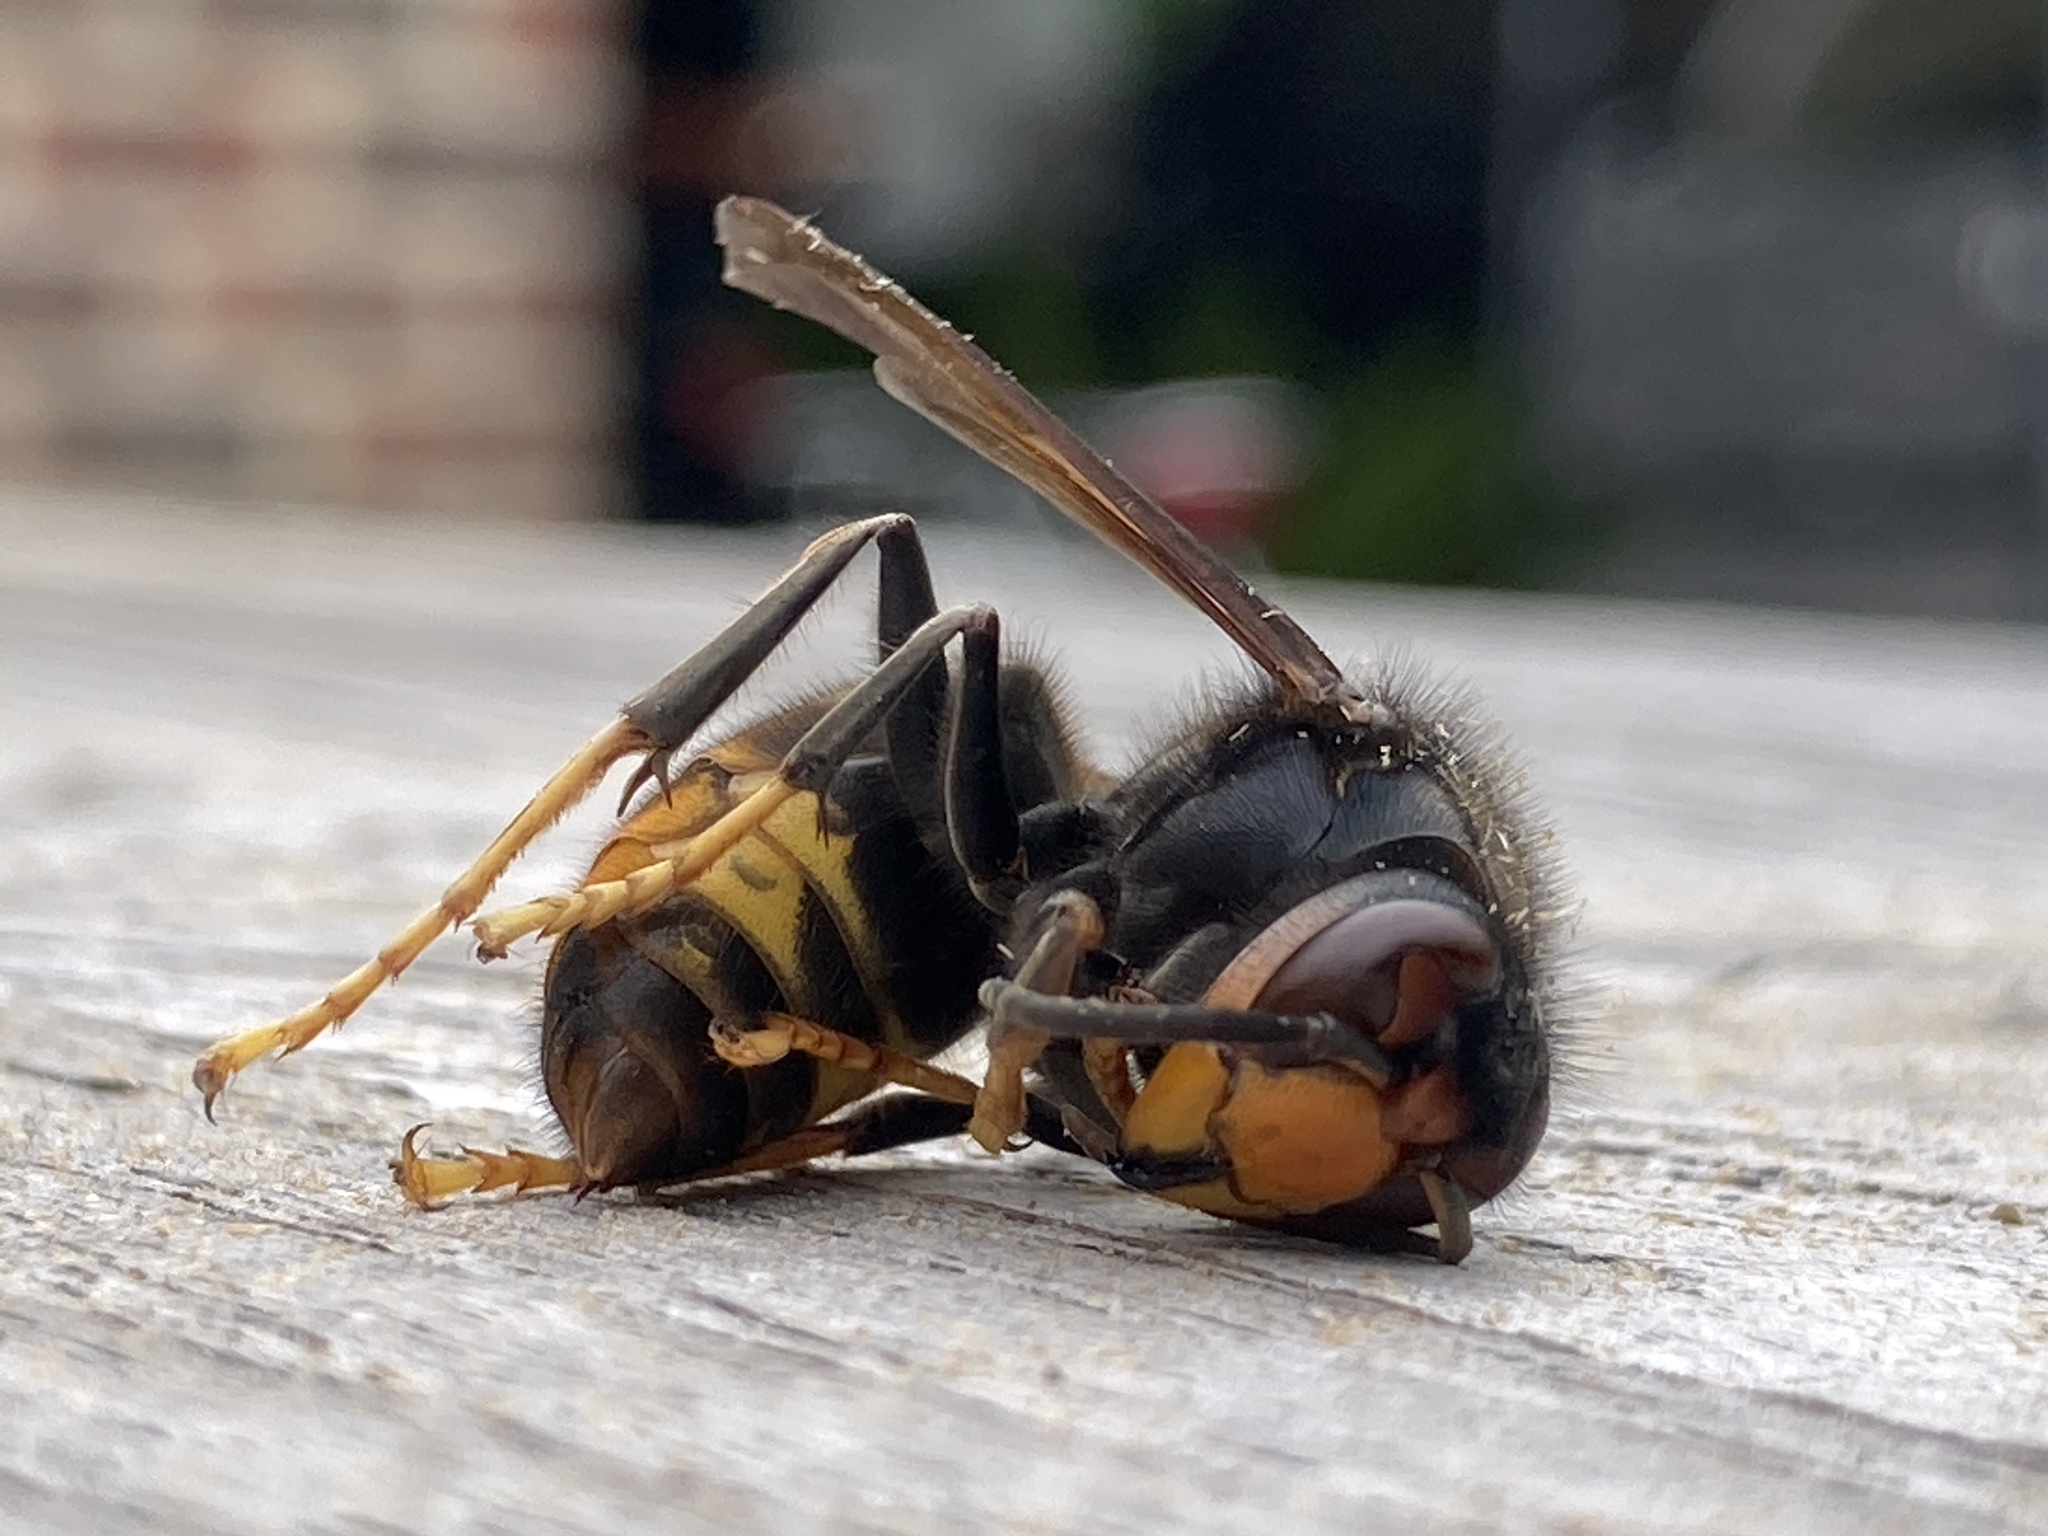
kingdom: Animalia
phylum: Arthropoda
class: Insecta
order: Hymenoptera
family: Vespidae
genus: Vespa
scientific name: Vespa velutina
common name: Asian hornet
